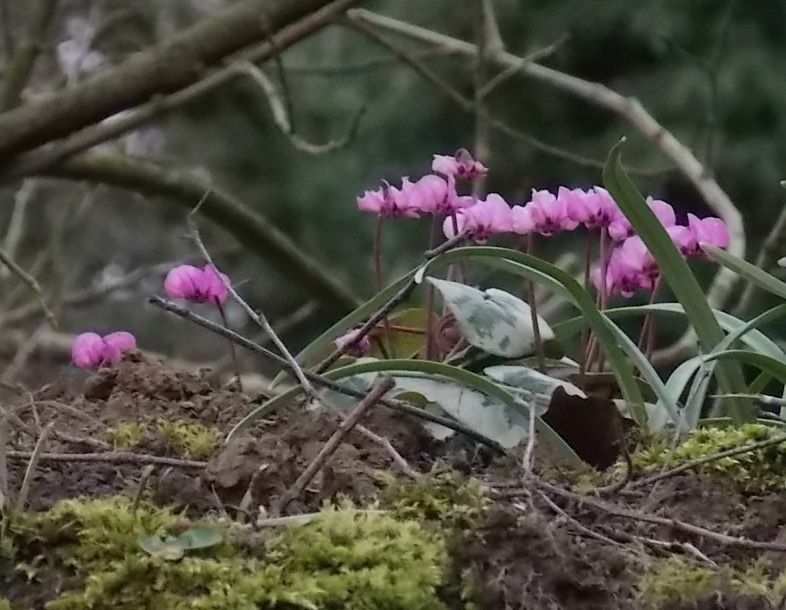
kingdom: Plantae
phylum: Tracheophyta
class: Magnoliopsida
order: Ericales
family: Primulaceae
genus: Cyclamen
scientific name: Cyclamen coum
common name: Eastern sowbread
